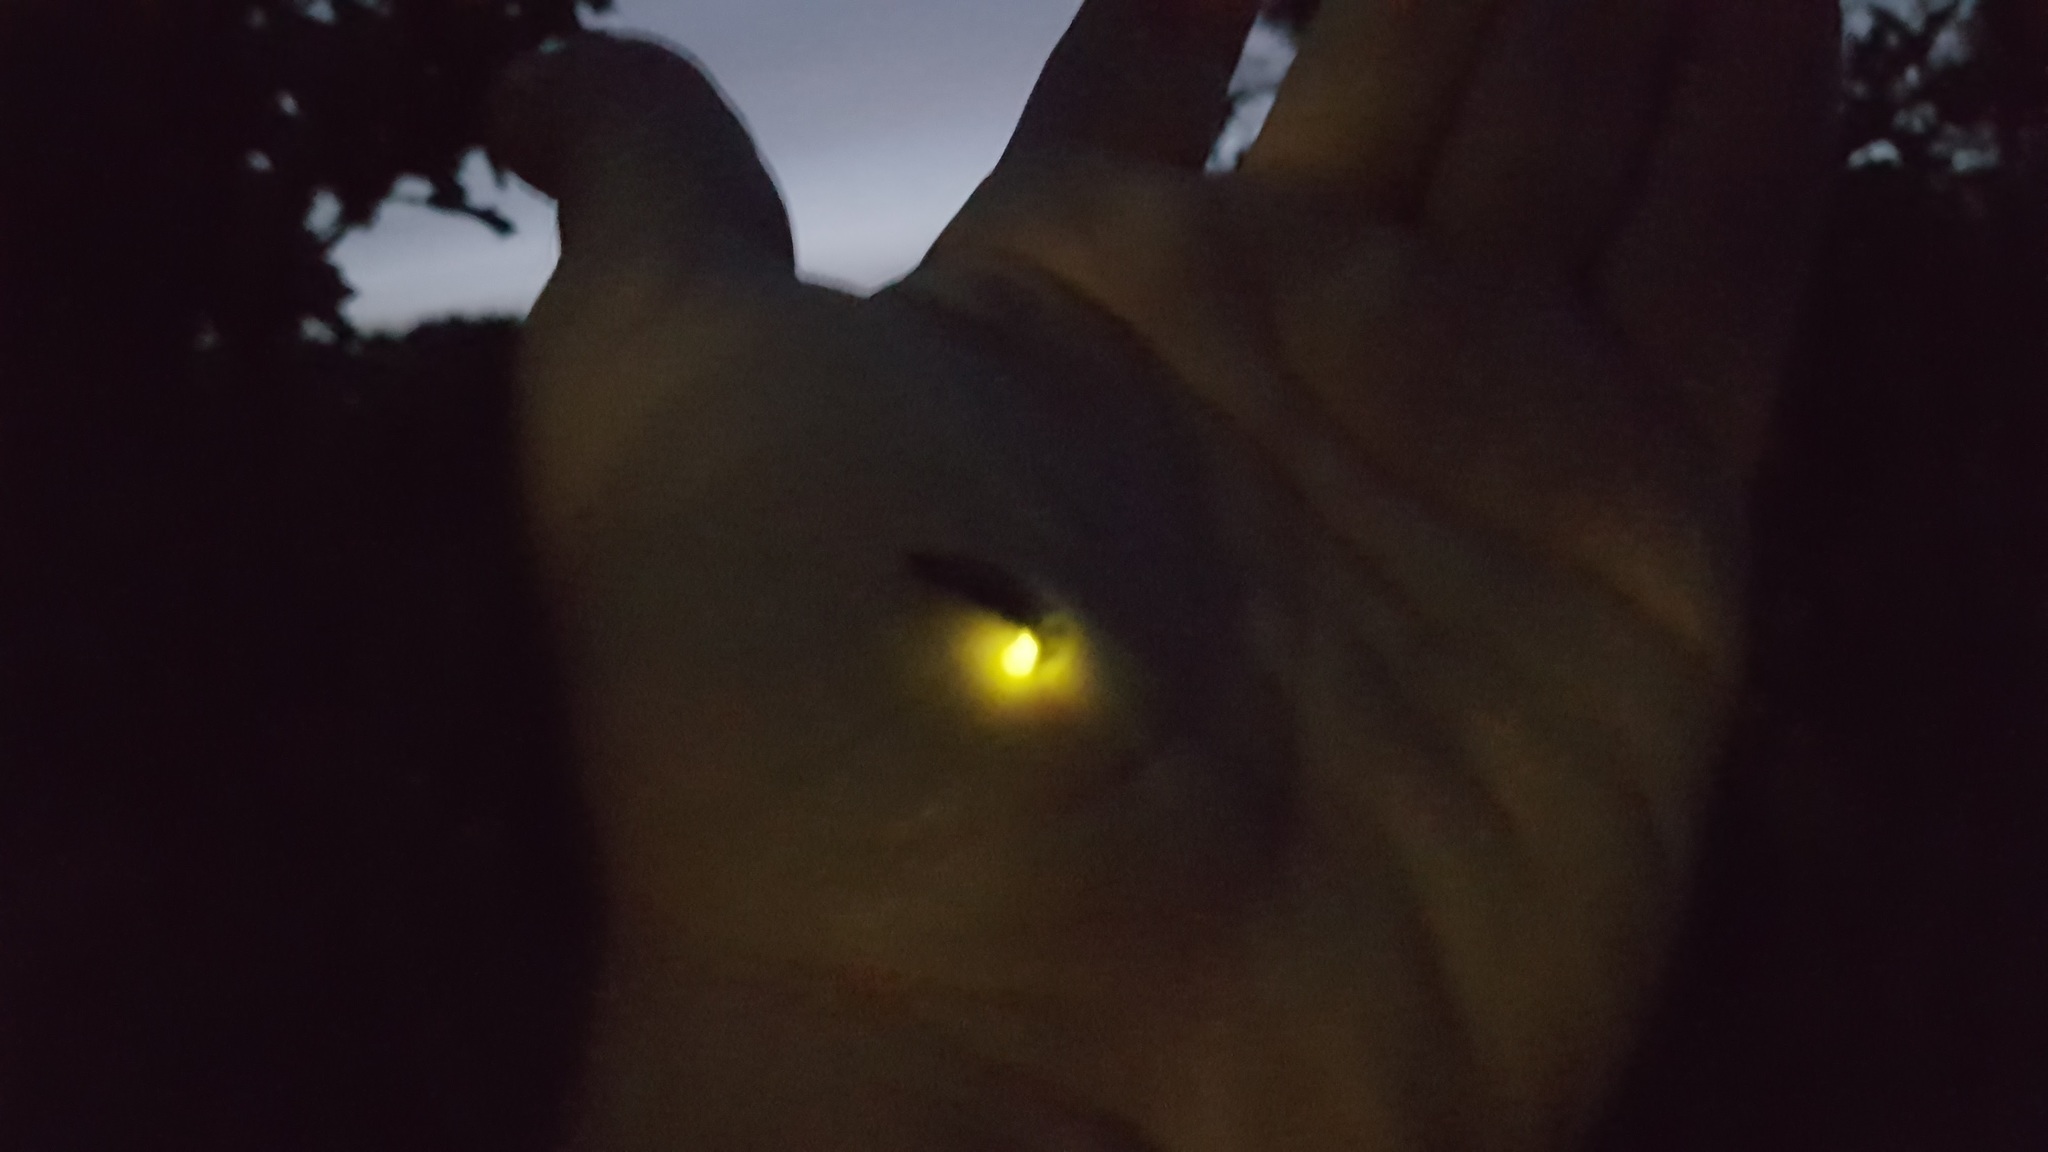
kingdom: Animalia
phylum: Arthropoda
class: Insecta
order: Coleoptera
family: Lampyridae
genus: Lampyris
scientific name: Lampyris noctiluca
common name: Glow-worm
